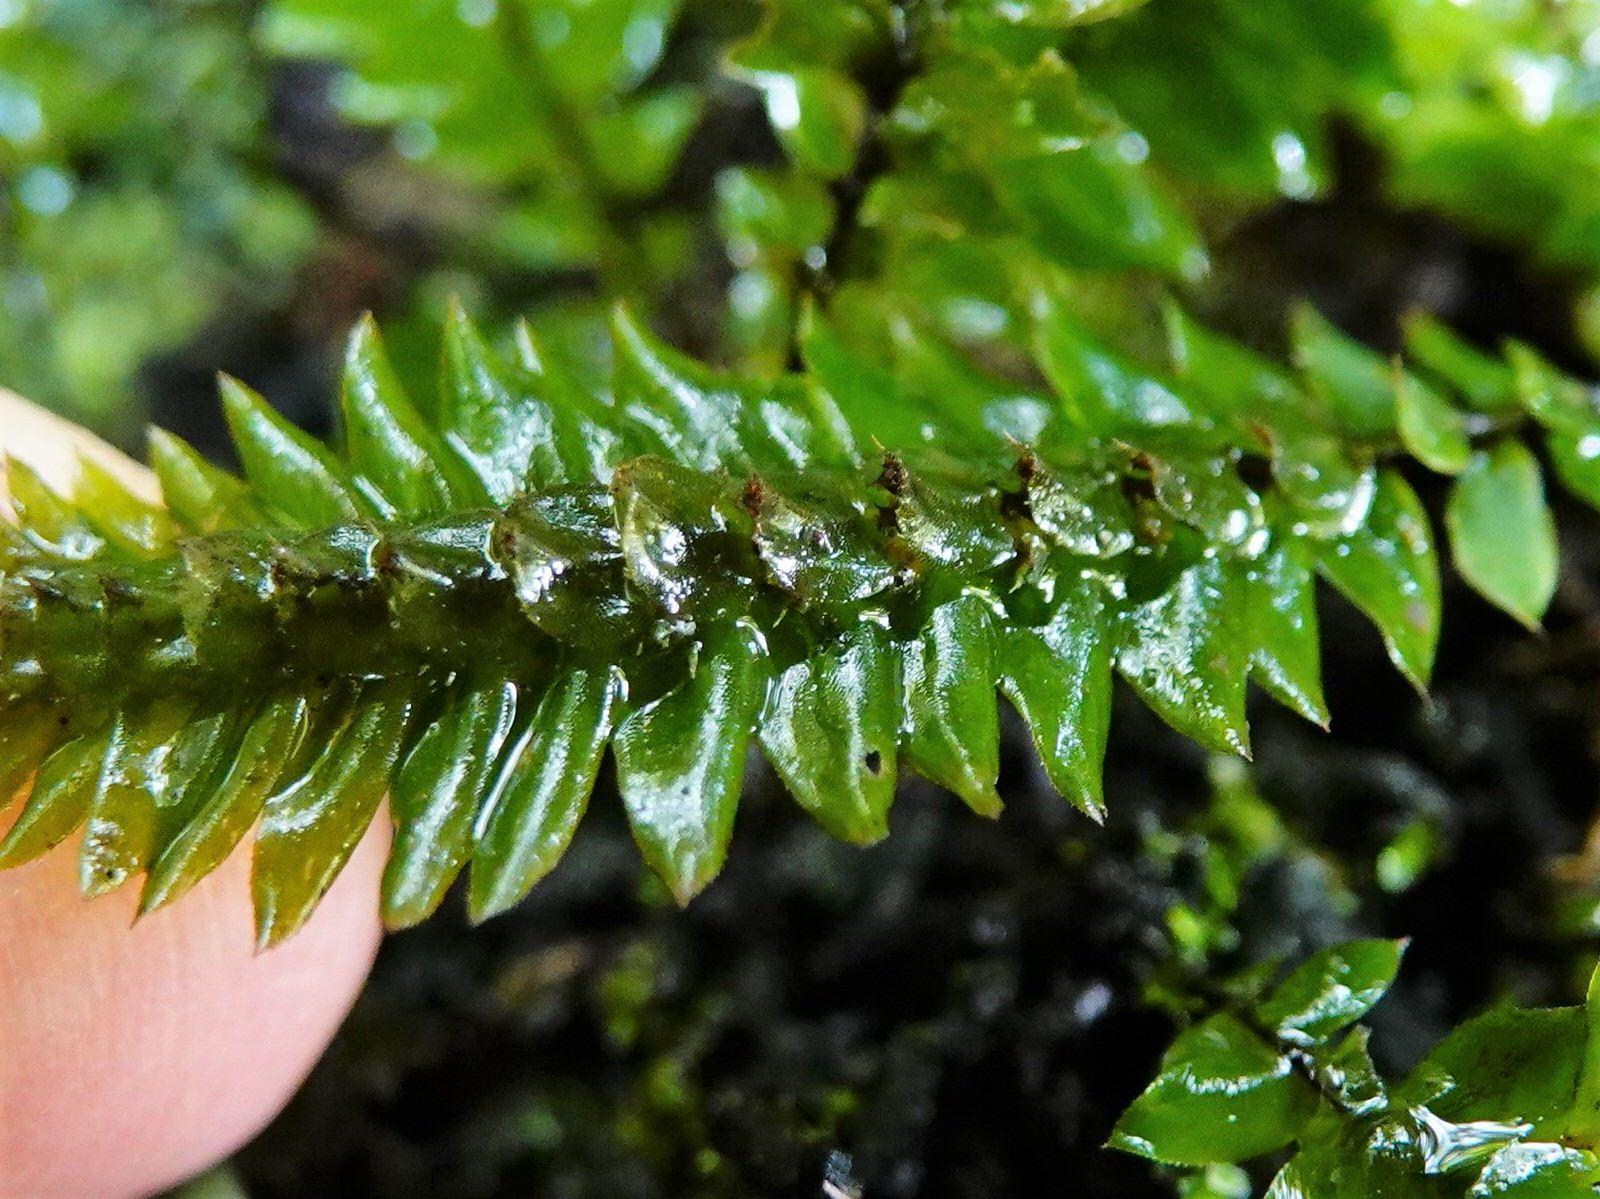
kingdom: Plantae
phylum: Bryophyta
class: Bryopsida
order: Hypopterygiales
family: Hypopterygiaceae
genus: Cyathophorum
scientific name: Cyathophorum bulbosum
